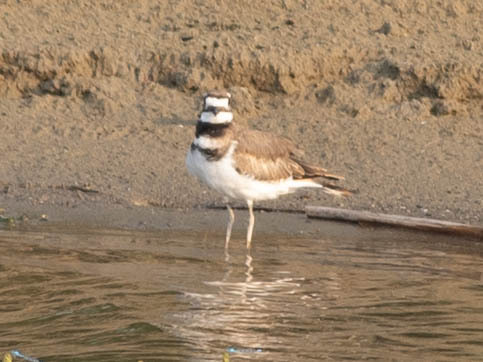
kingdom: Animalia
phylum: Chordata
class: Aves
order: Charadriiformes
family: Charadriidae
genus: Charadrius
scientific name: Charadrius vociferus
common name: Killdeer
